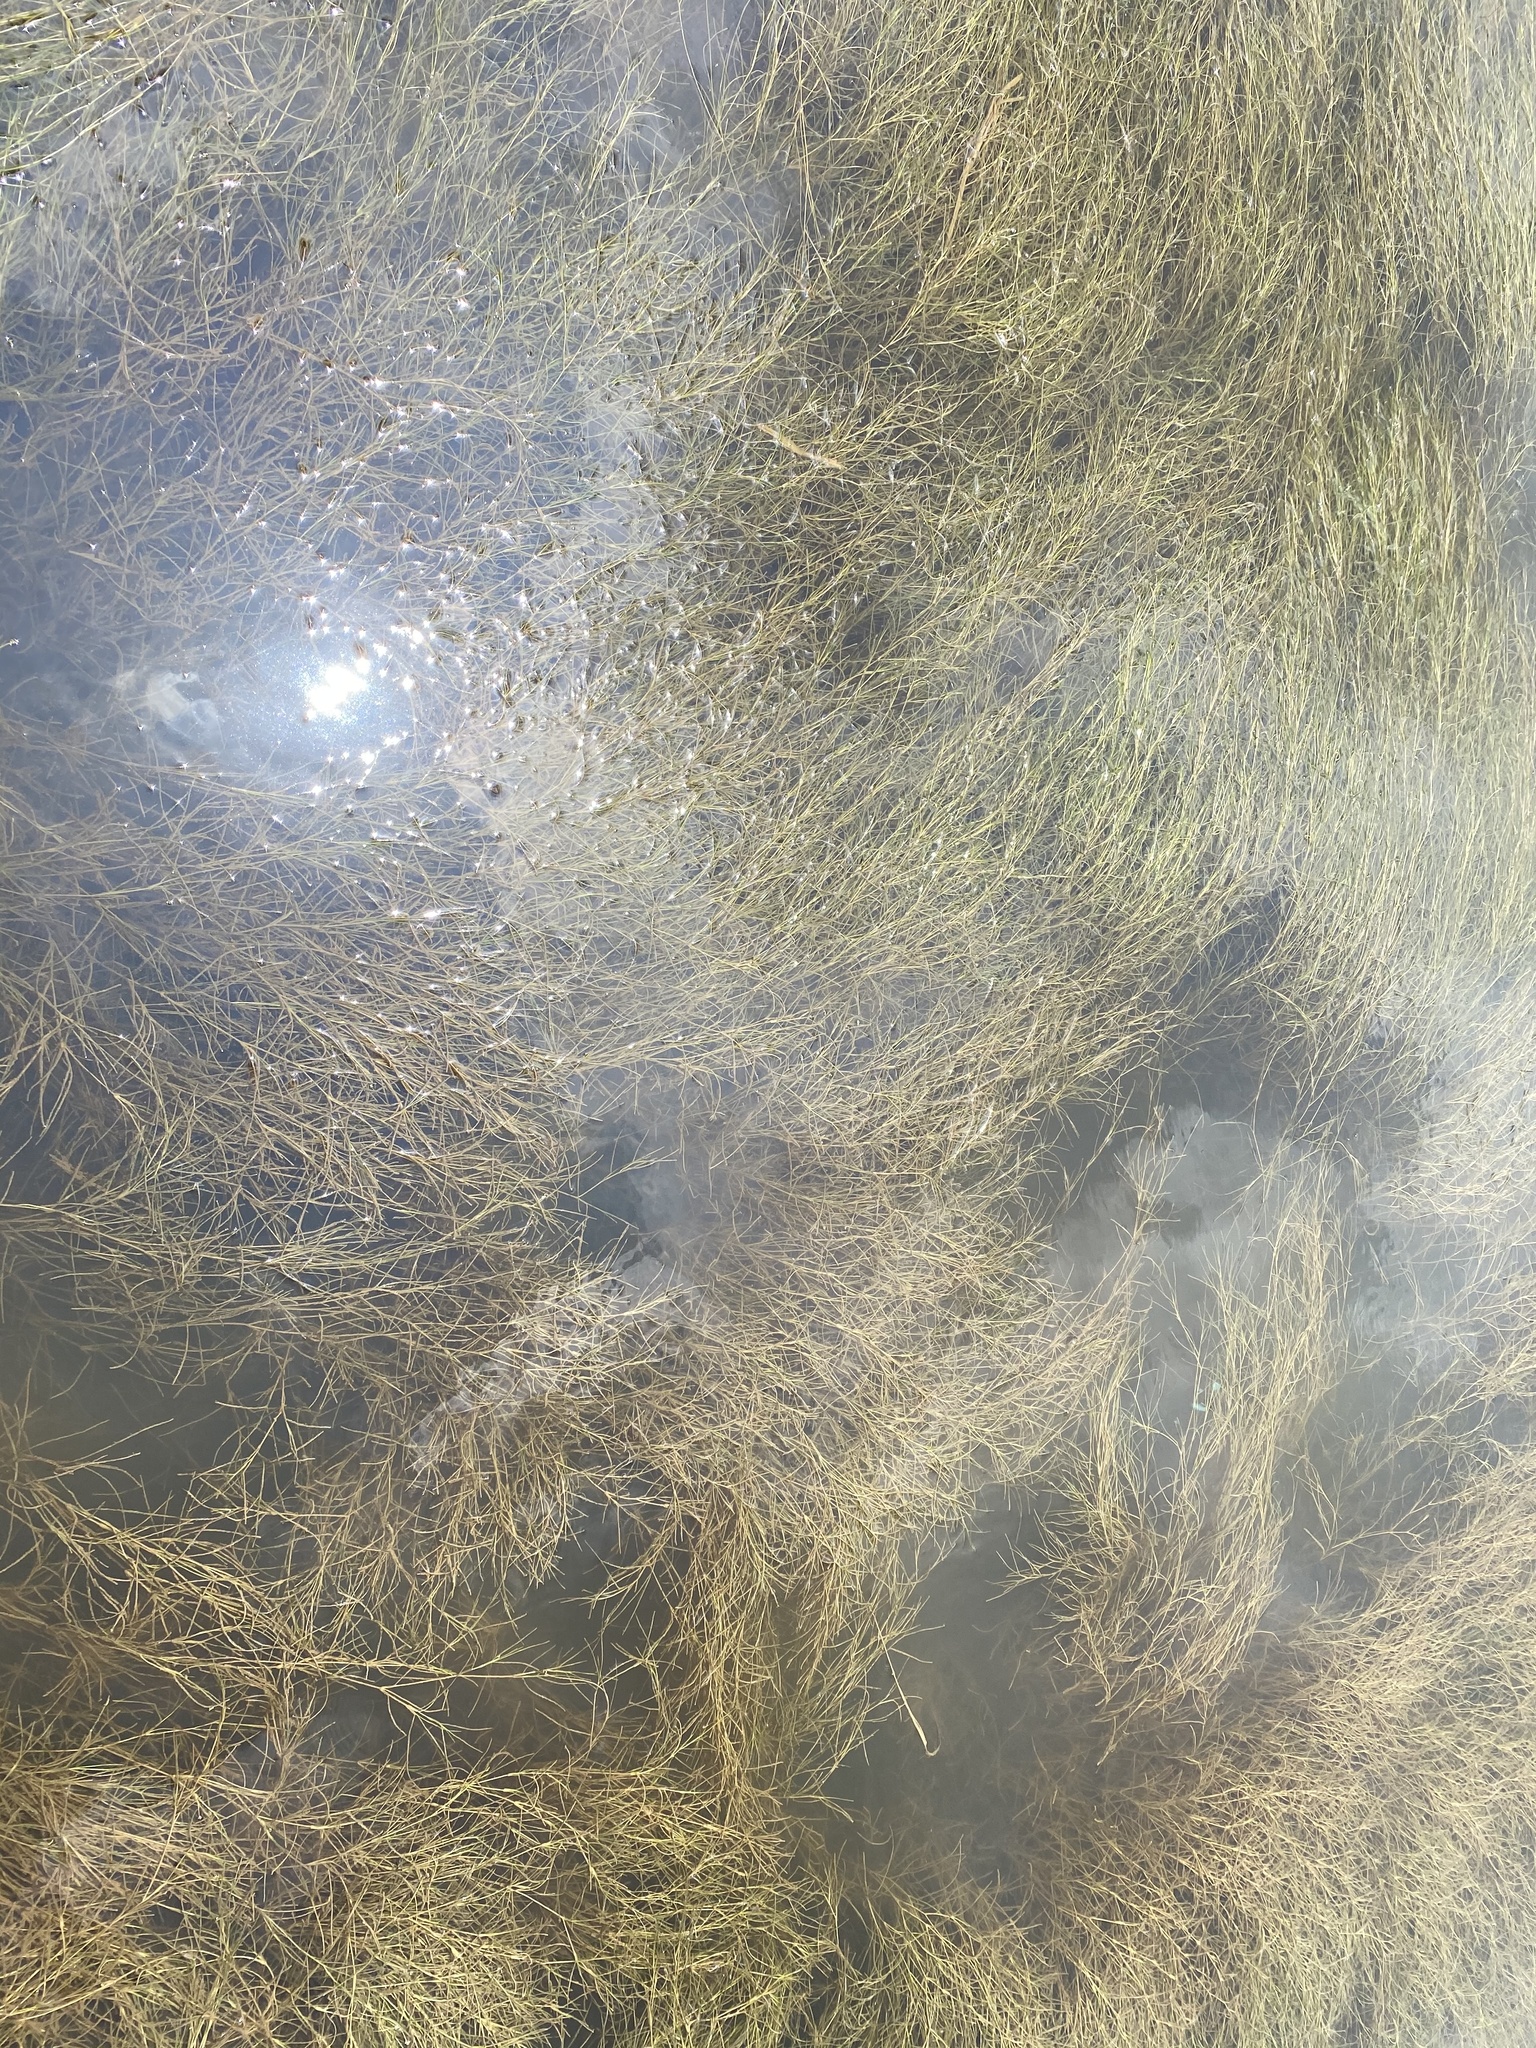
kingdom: Plantae
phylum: Tracheophyta
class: Liliopsida
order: Alismatales
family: Ruppiaceae
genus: Ruppia
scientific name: Ruppia maritima
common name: Beaked tasselweed
